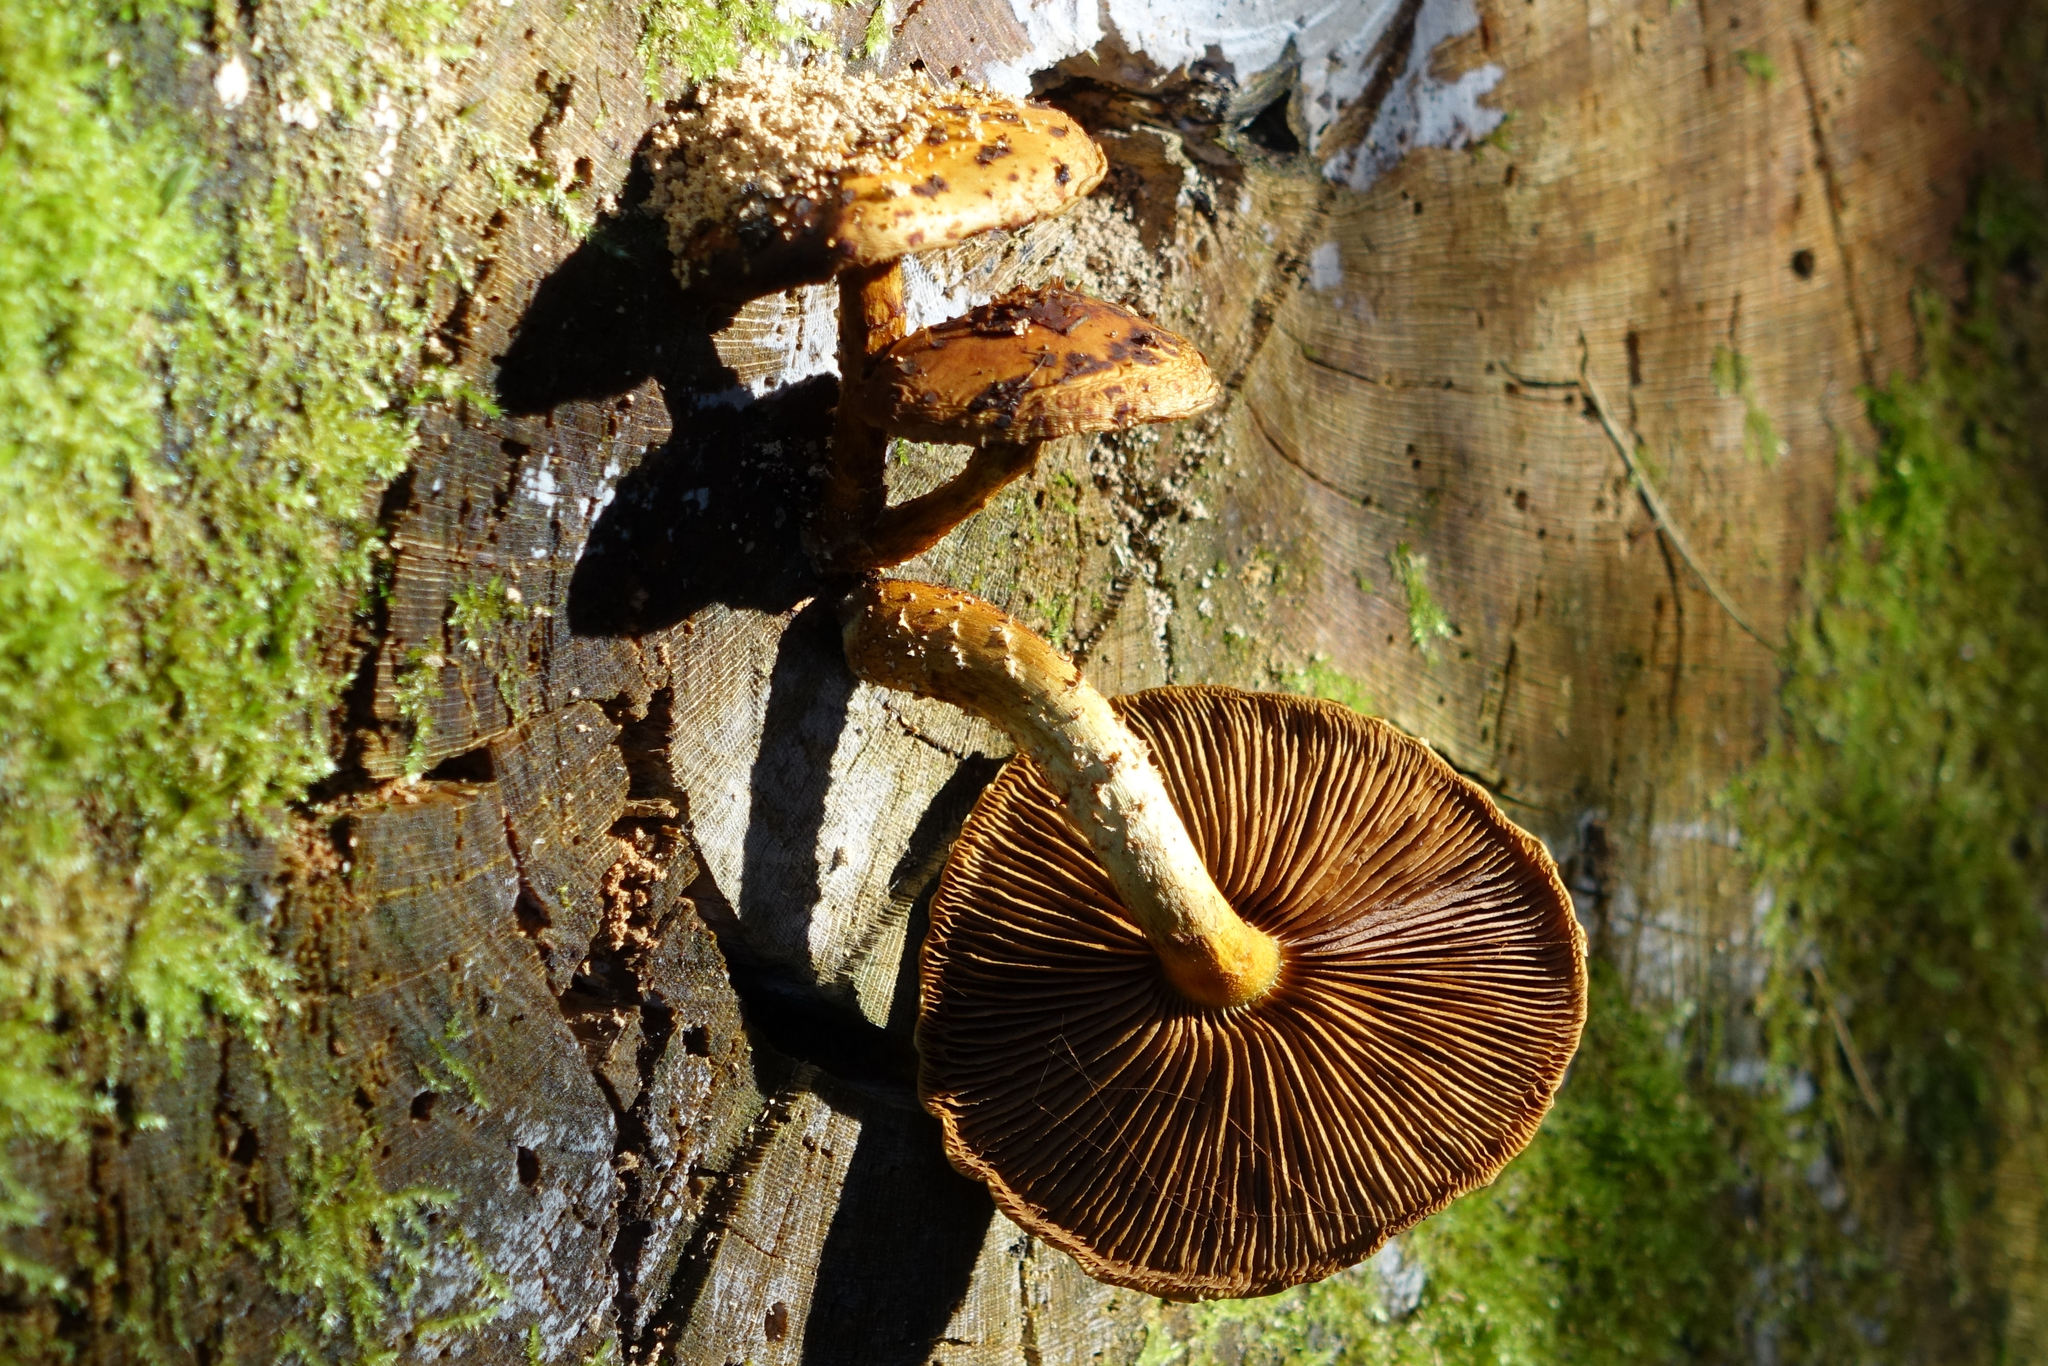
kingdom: Fungi
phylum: Basidiomycota
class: Agaricomycetes
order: Agaricales
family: Strophariaceae
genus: Pholiota
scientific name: Pholiota glutinosa
